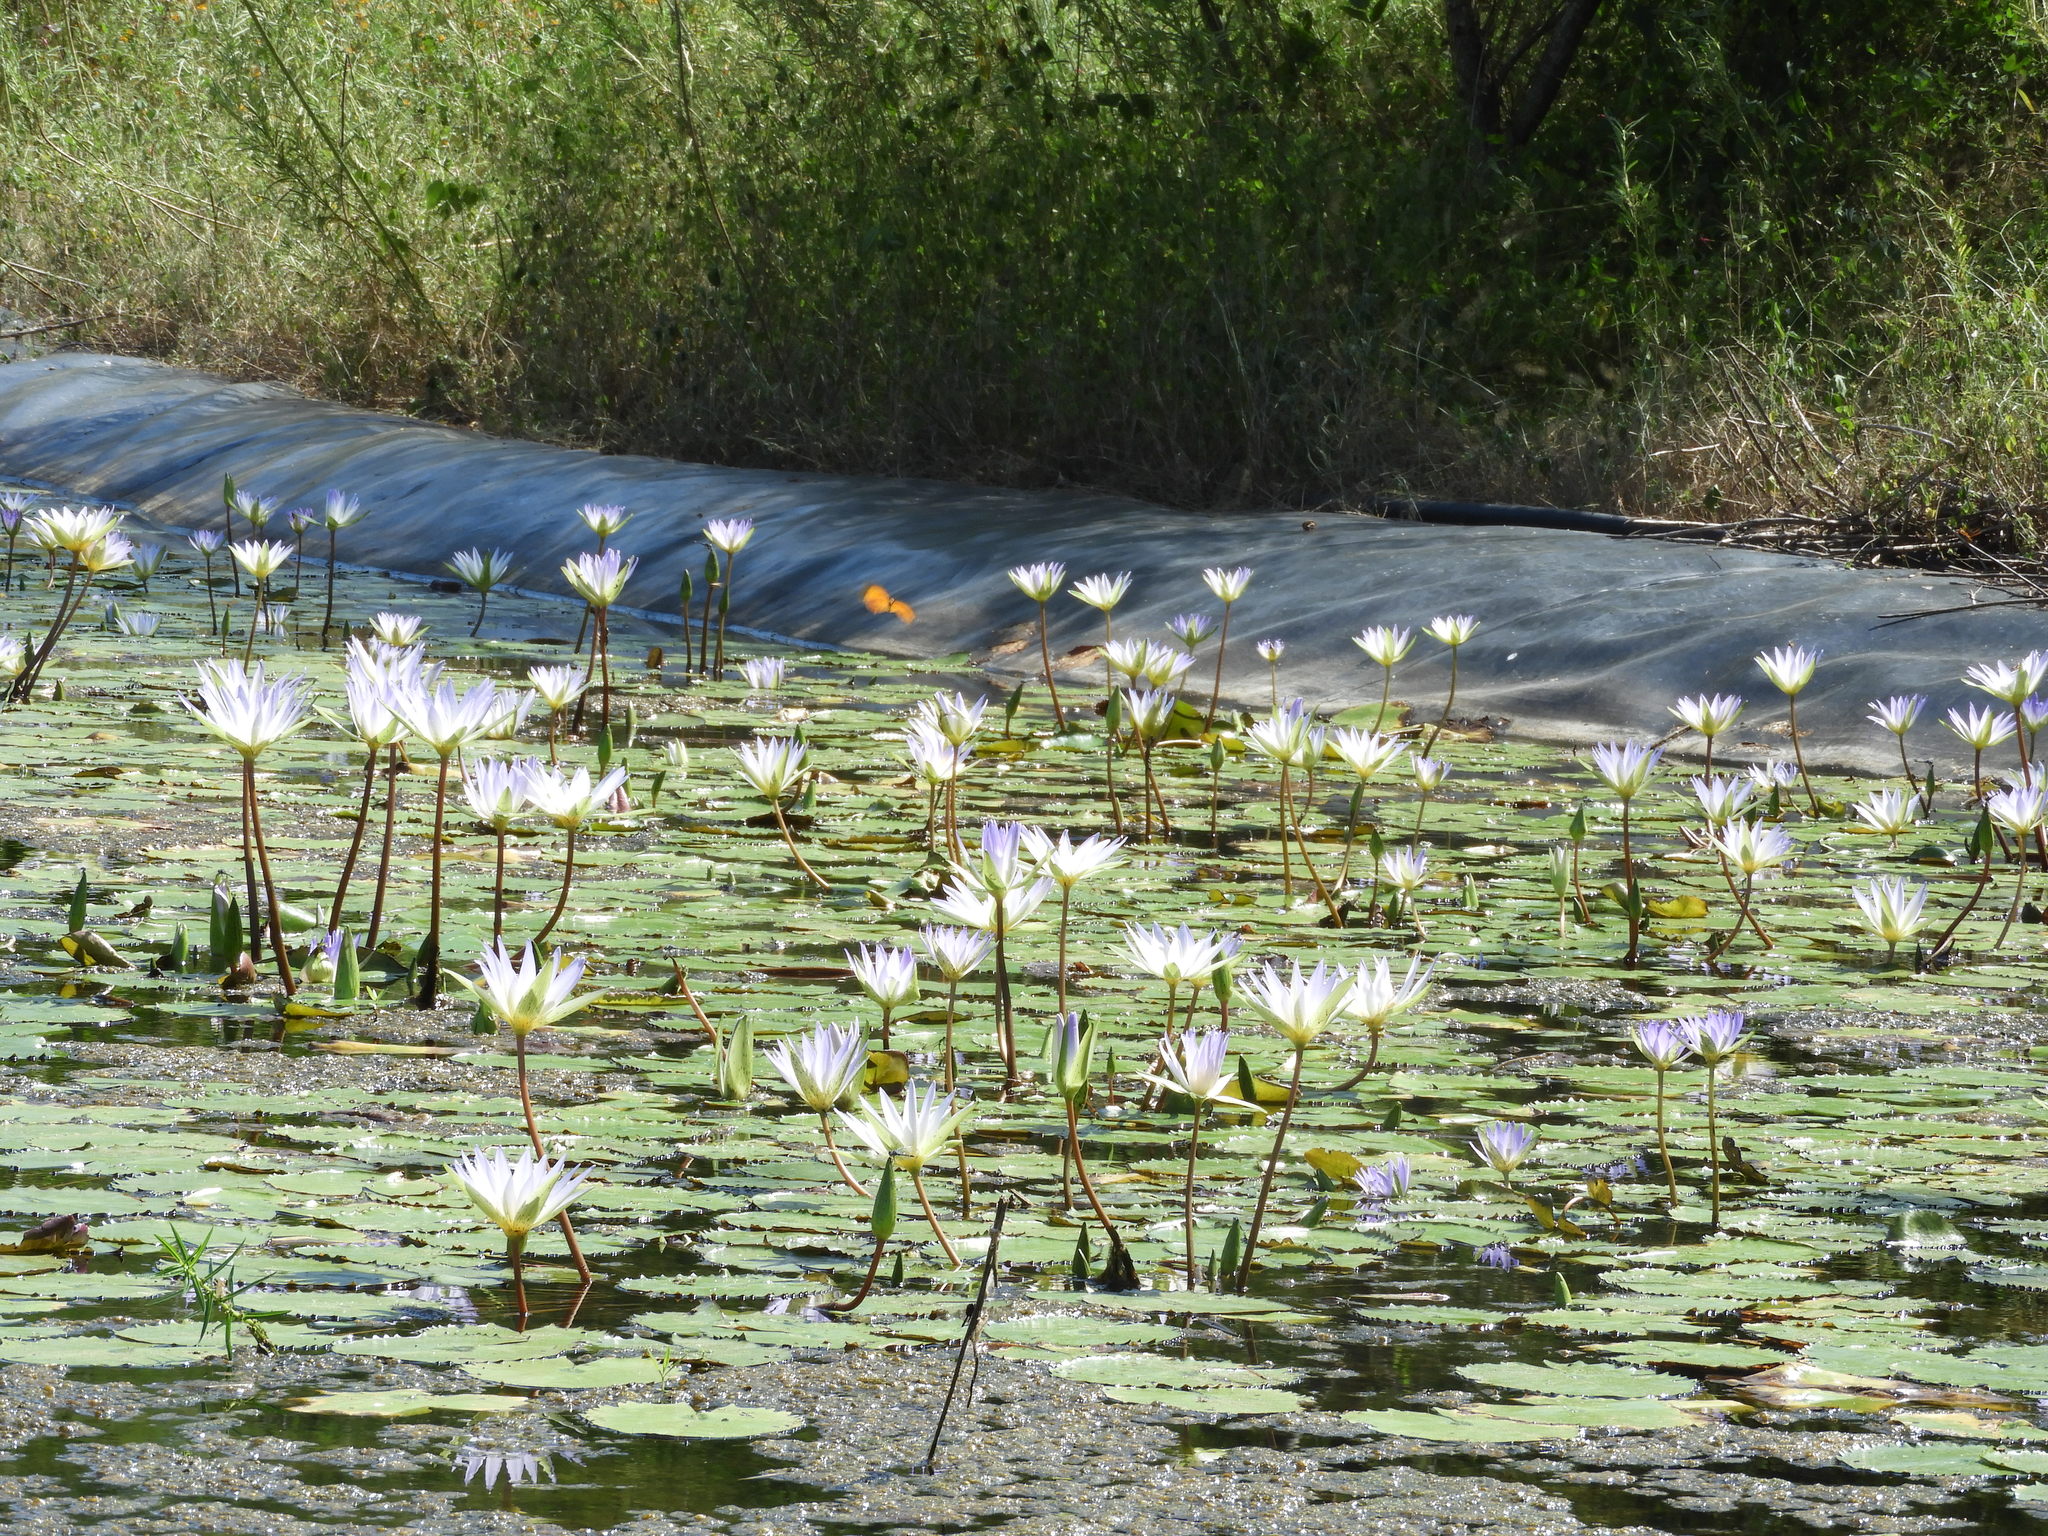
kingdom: Plantae
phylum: Tracheophyta
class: Magnoliopsida
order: Nymphaeales
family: Nymphaeaceae
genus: Nymphaea
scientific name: Nymphaea elegans
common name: Blue water-lily
